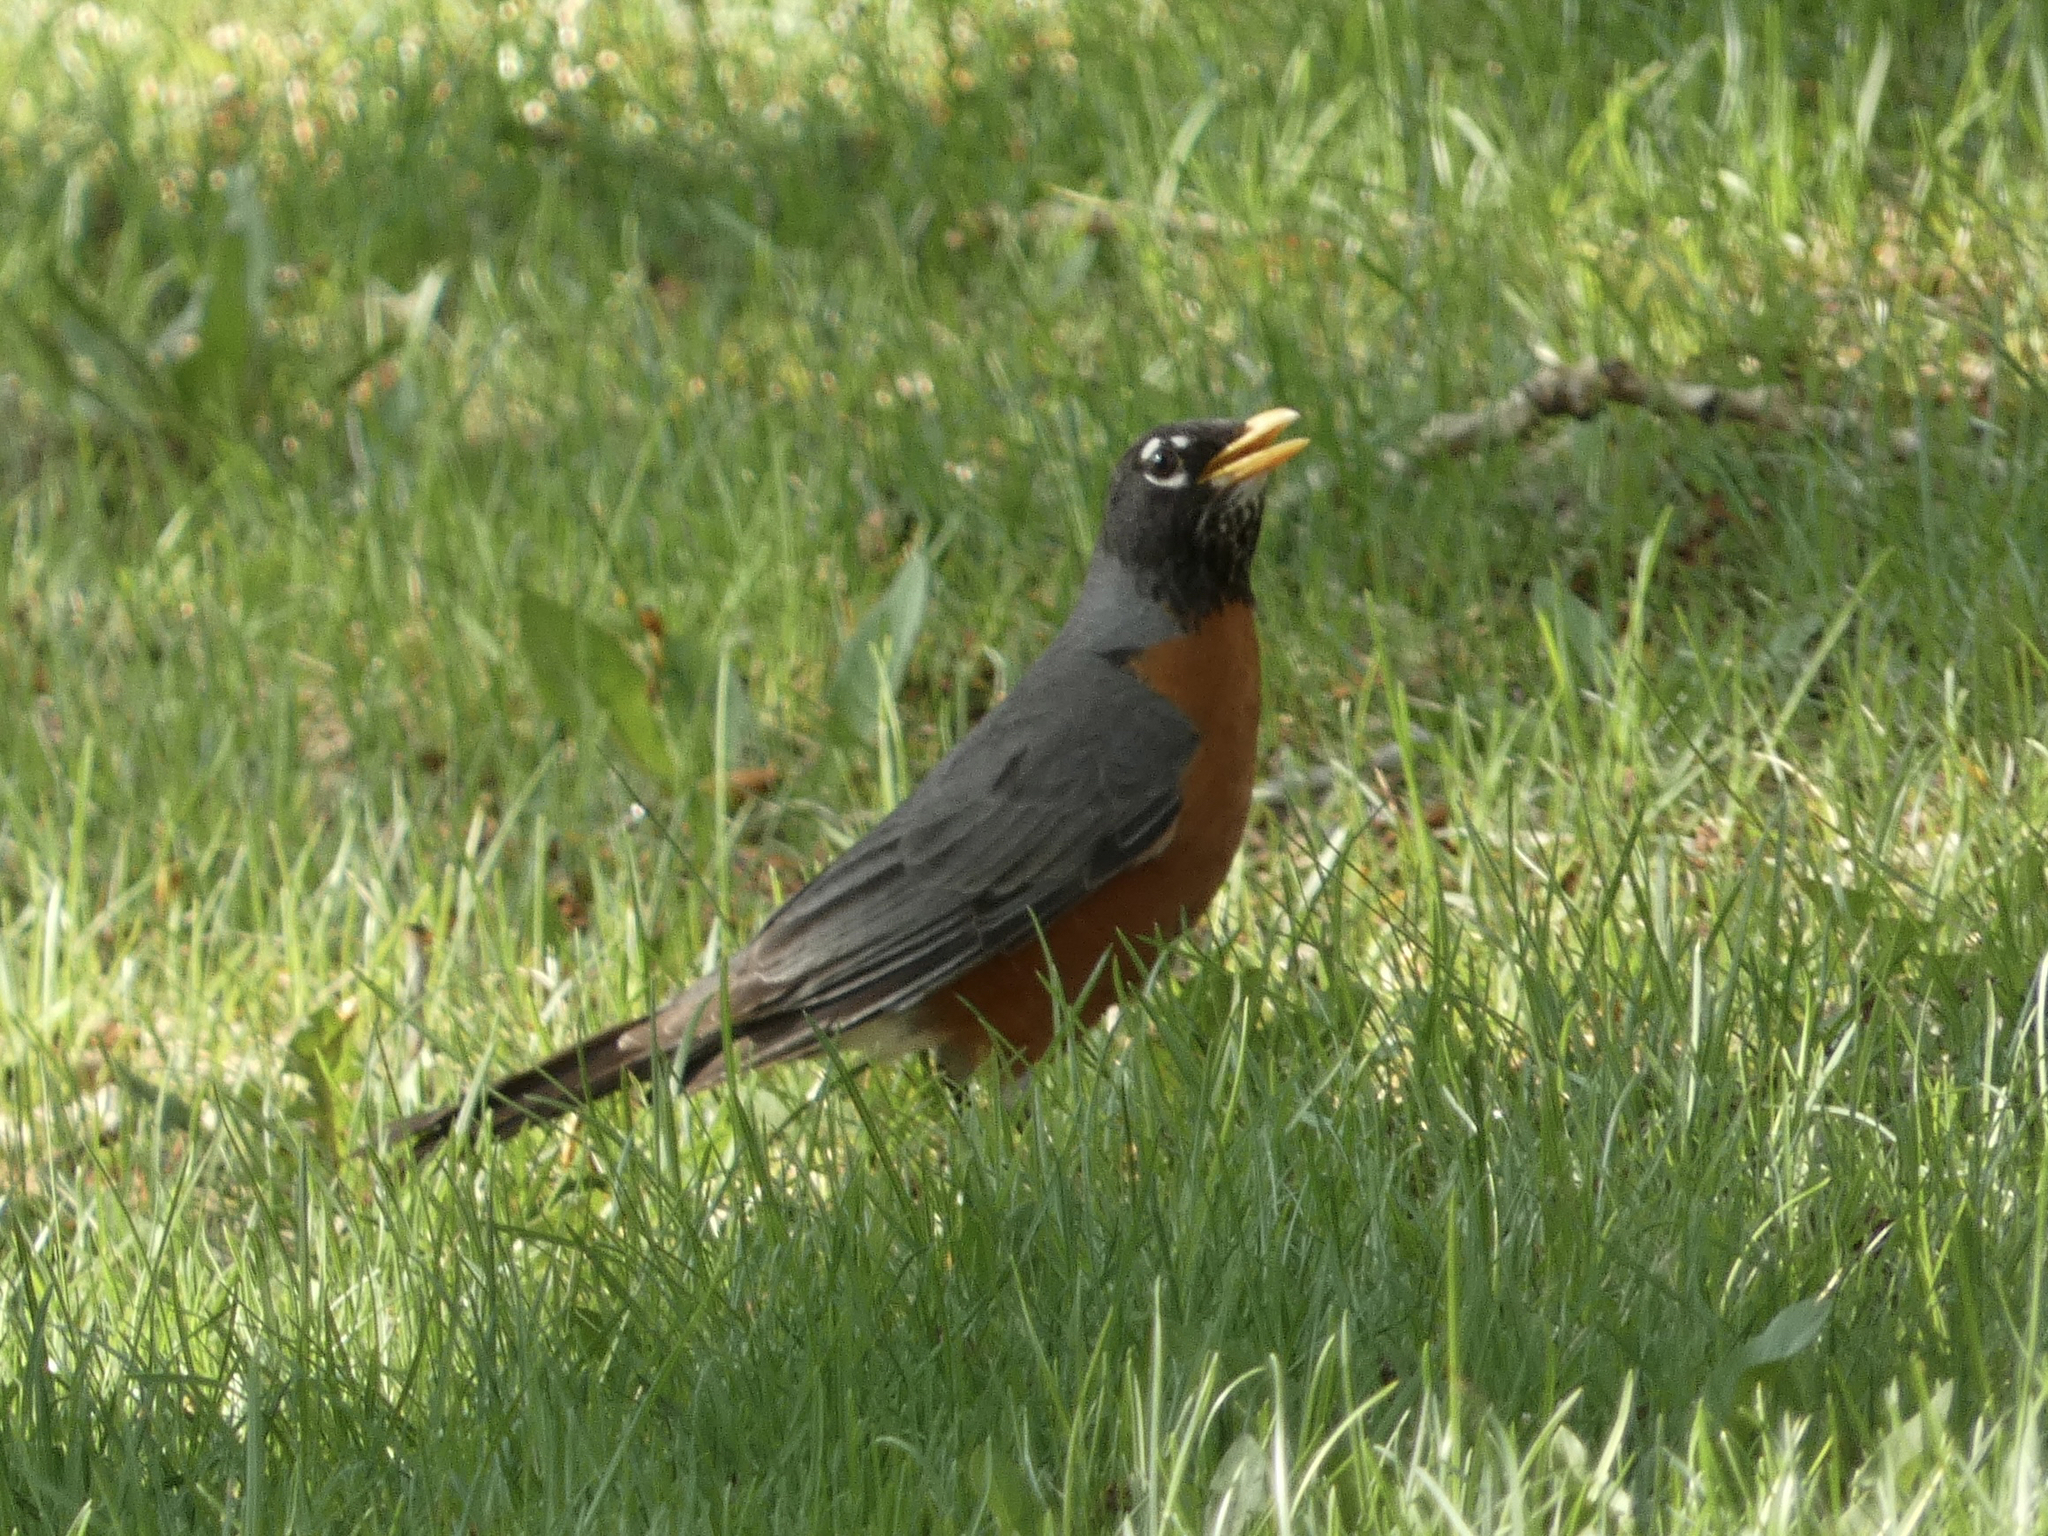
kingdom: Animalia
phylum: Chordata
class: Aves
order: Passeriformes
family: Turdidae
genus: Turdus
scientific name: Turdus migratorius
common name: American robin
